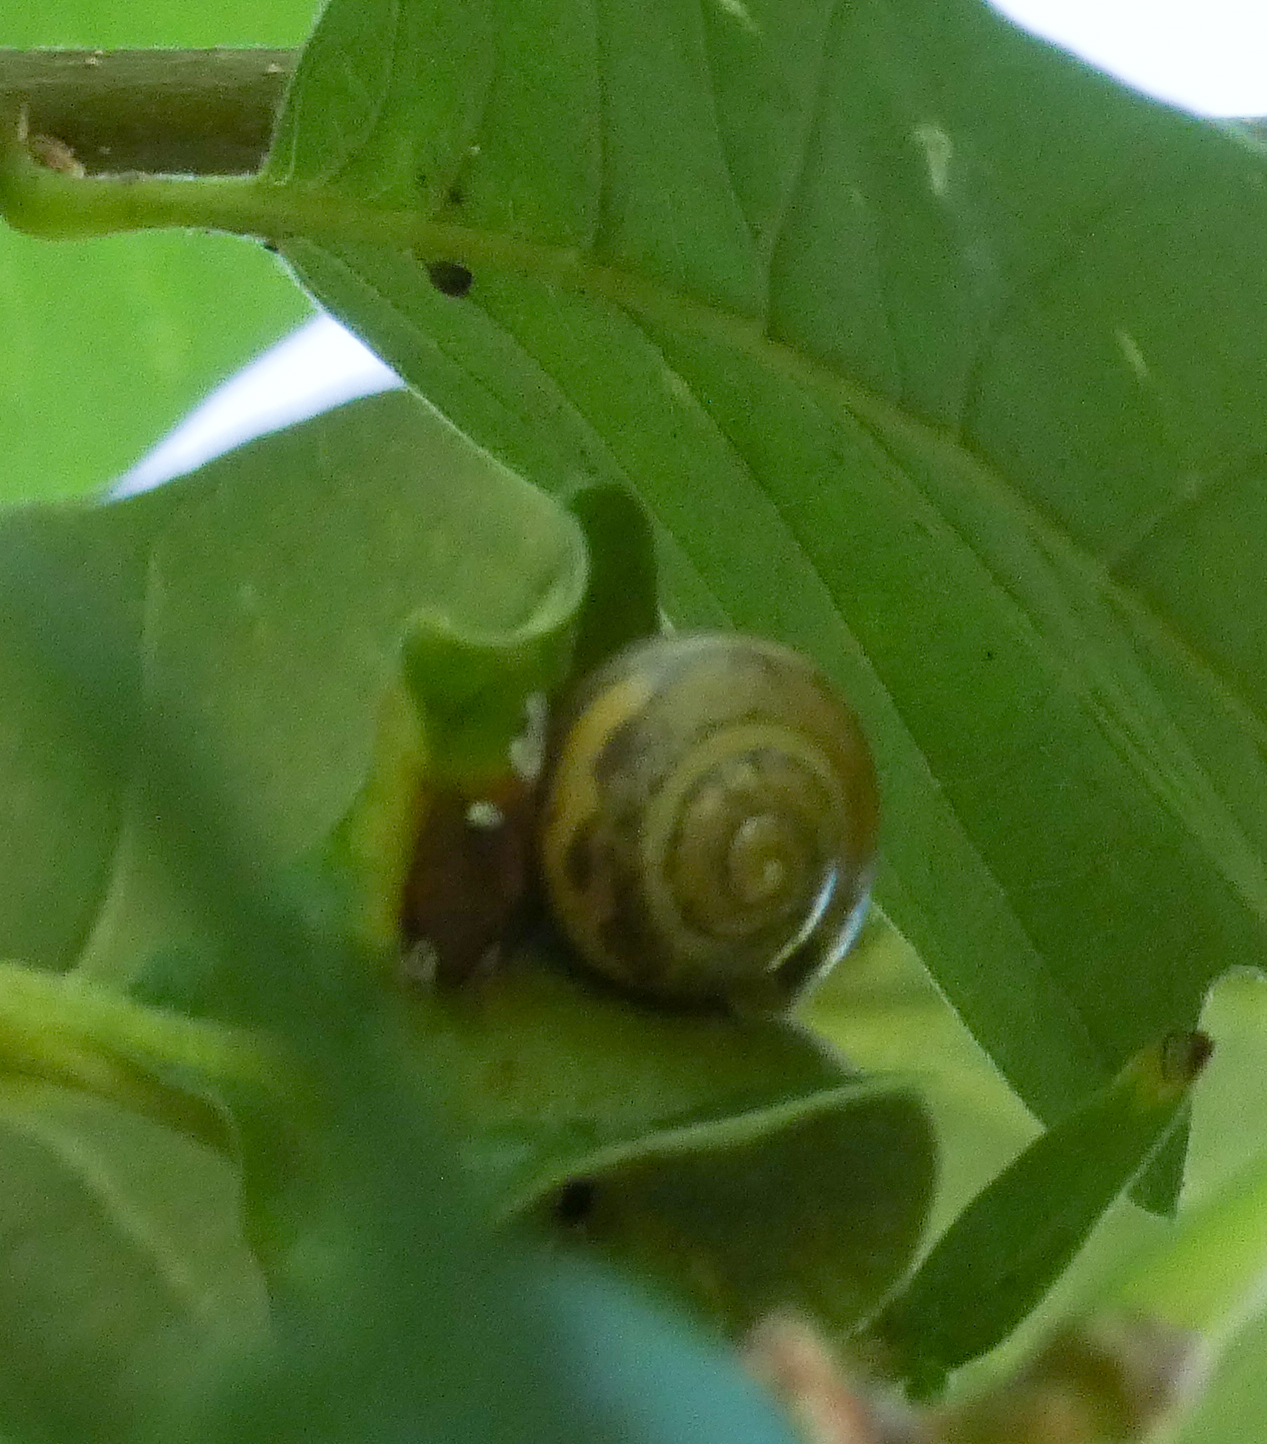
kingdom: Animalia
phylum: Mollusca
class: Gastropoda
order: Stylommatophora
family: Helicidae
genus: Cepaea
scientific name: Cepaea
